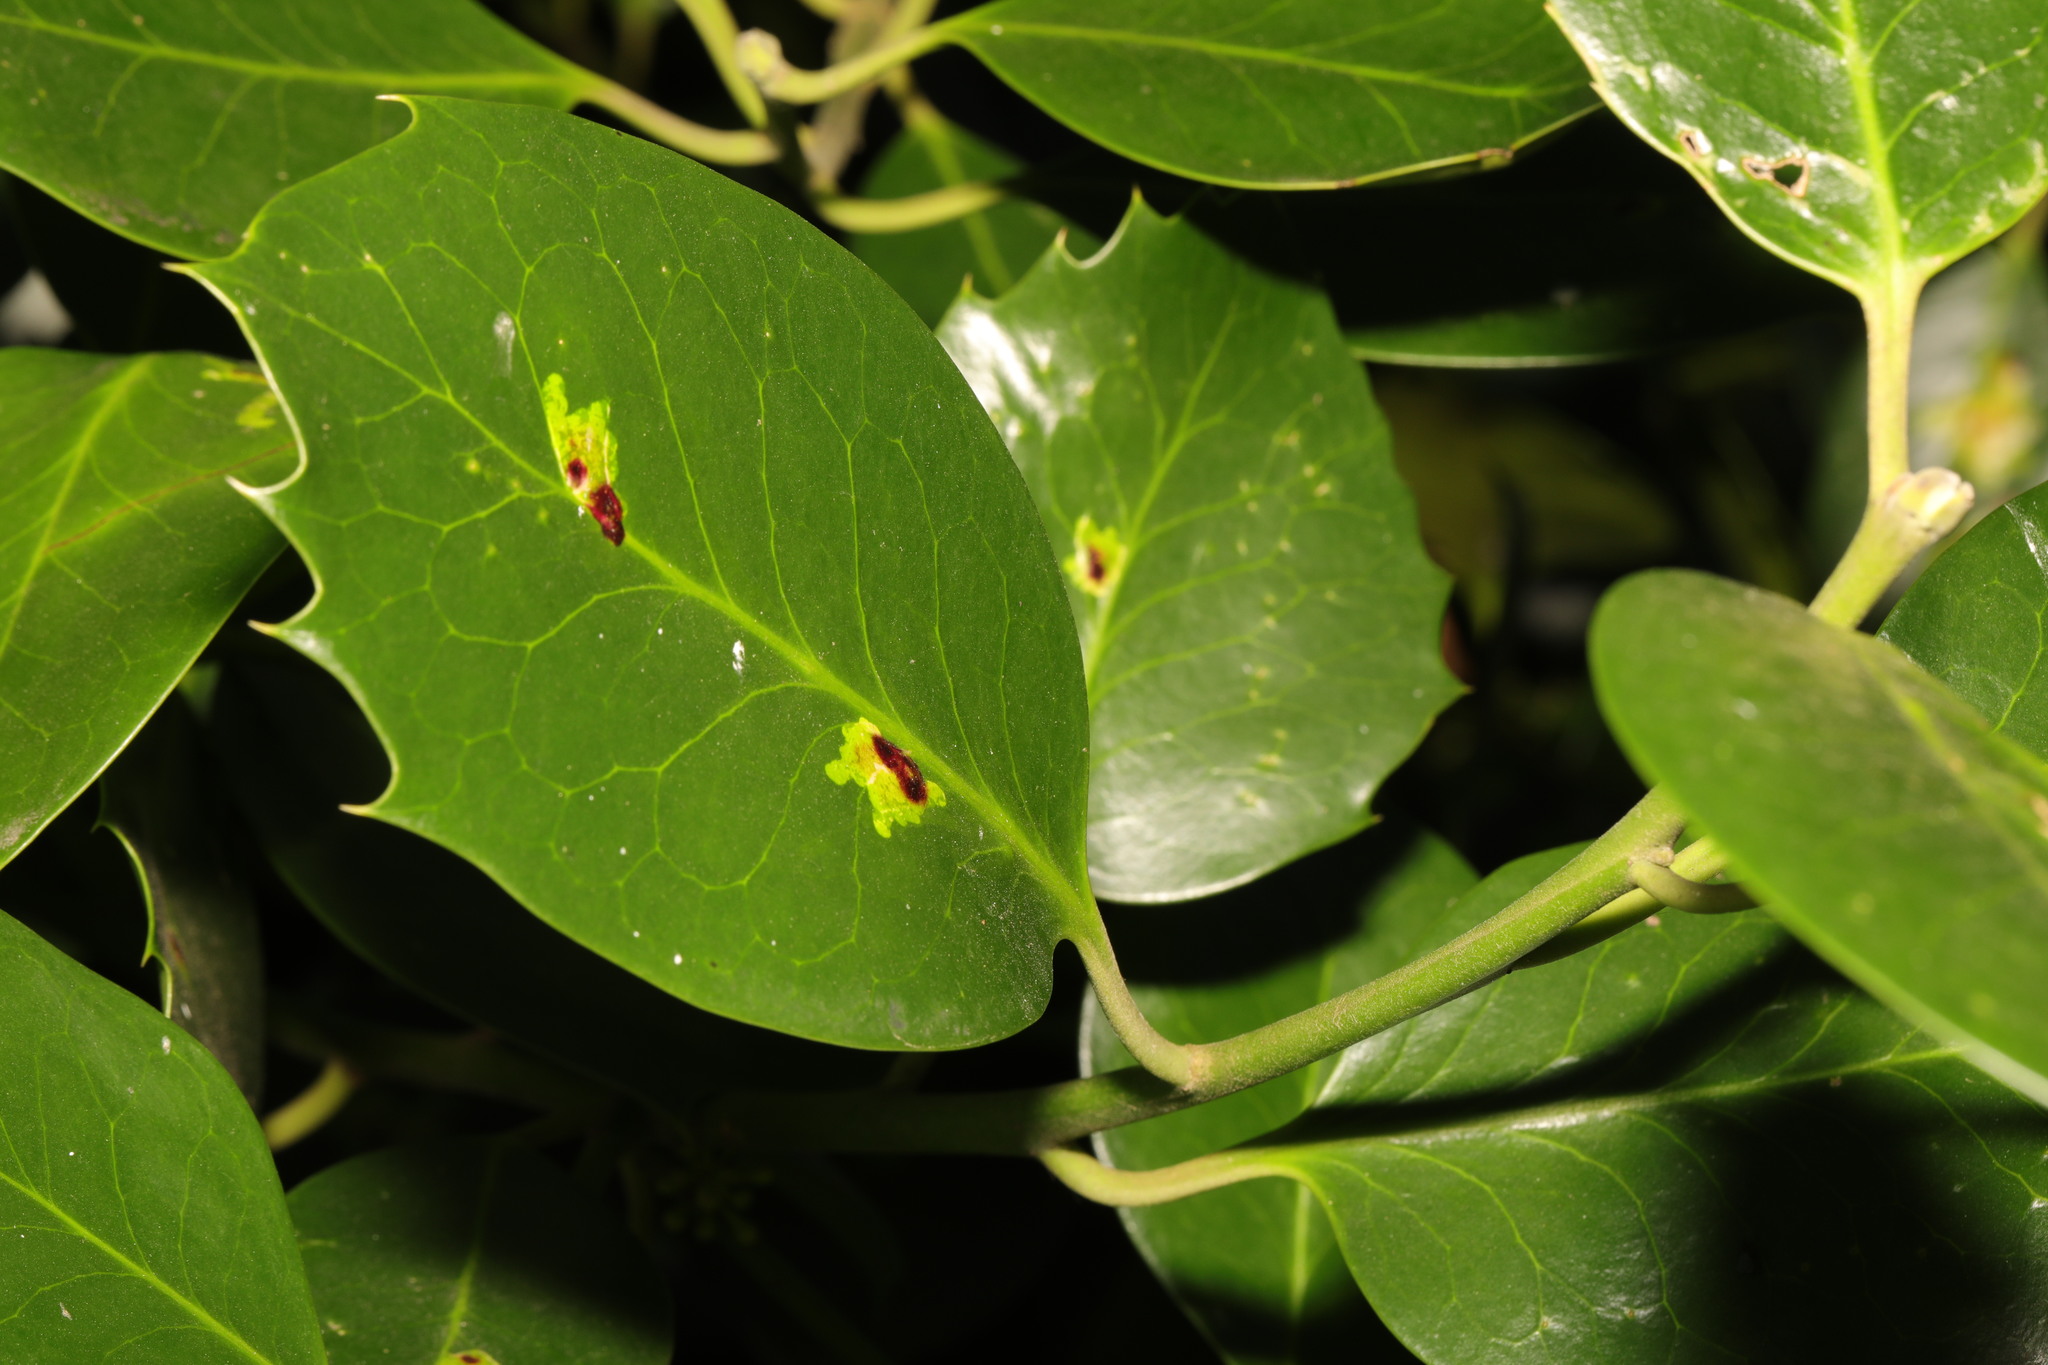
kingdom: Plantae
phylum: Tracheophyta
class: Magnoliopsida
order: Aquifoliales
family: Aquifoliaceae
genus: Ilex
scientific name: Ilex aquifolium
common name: English holly
